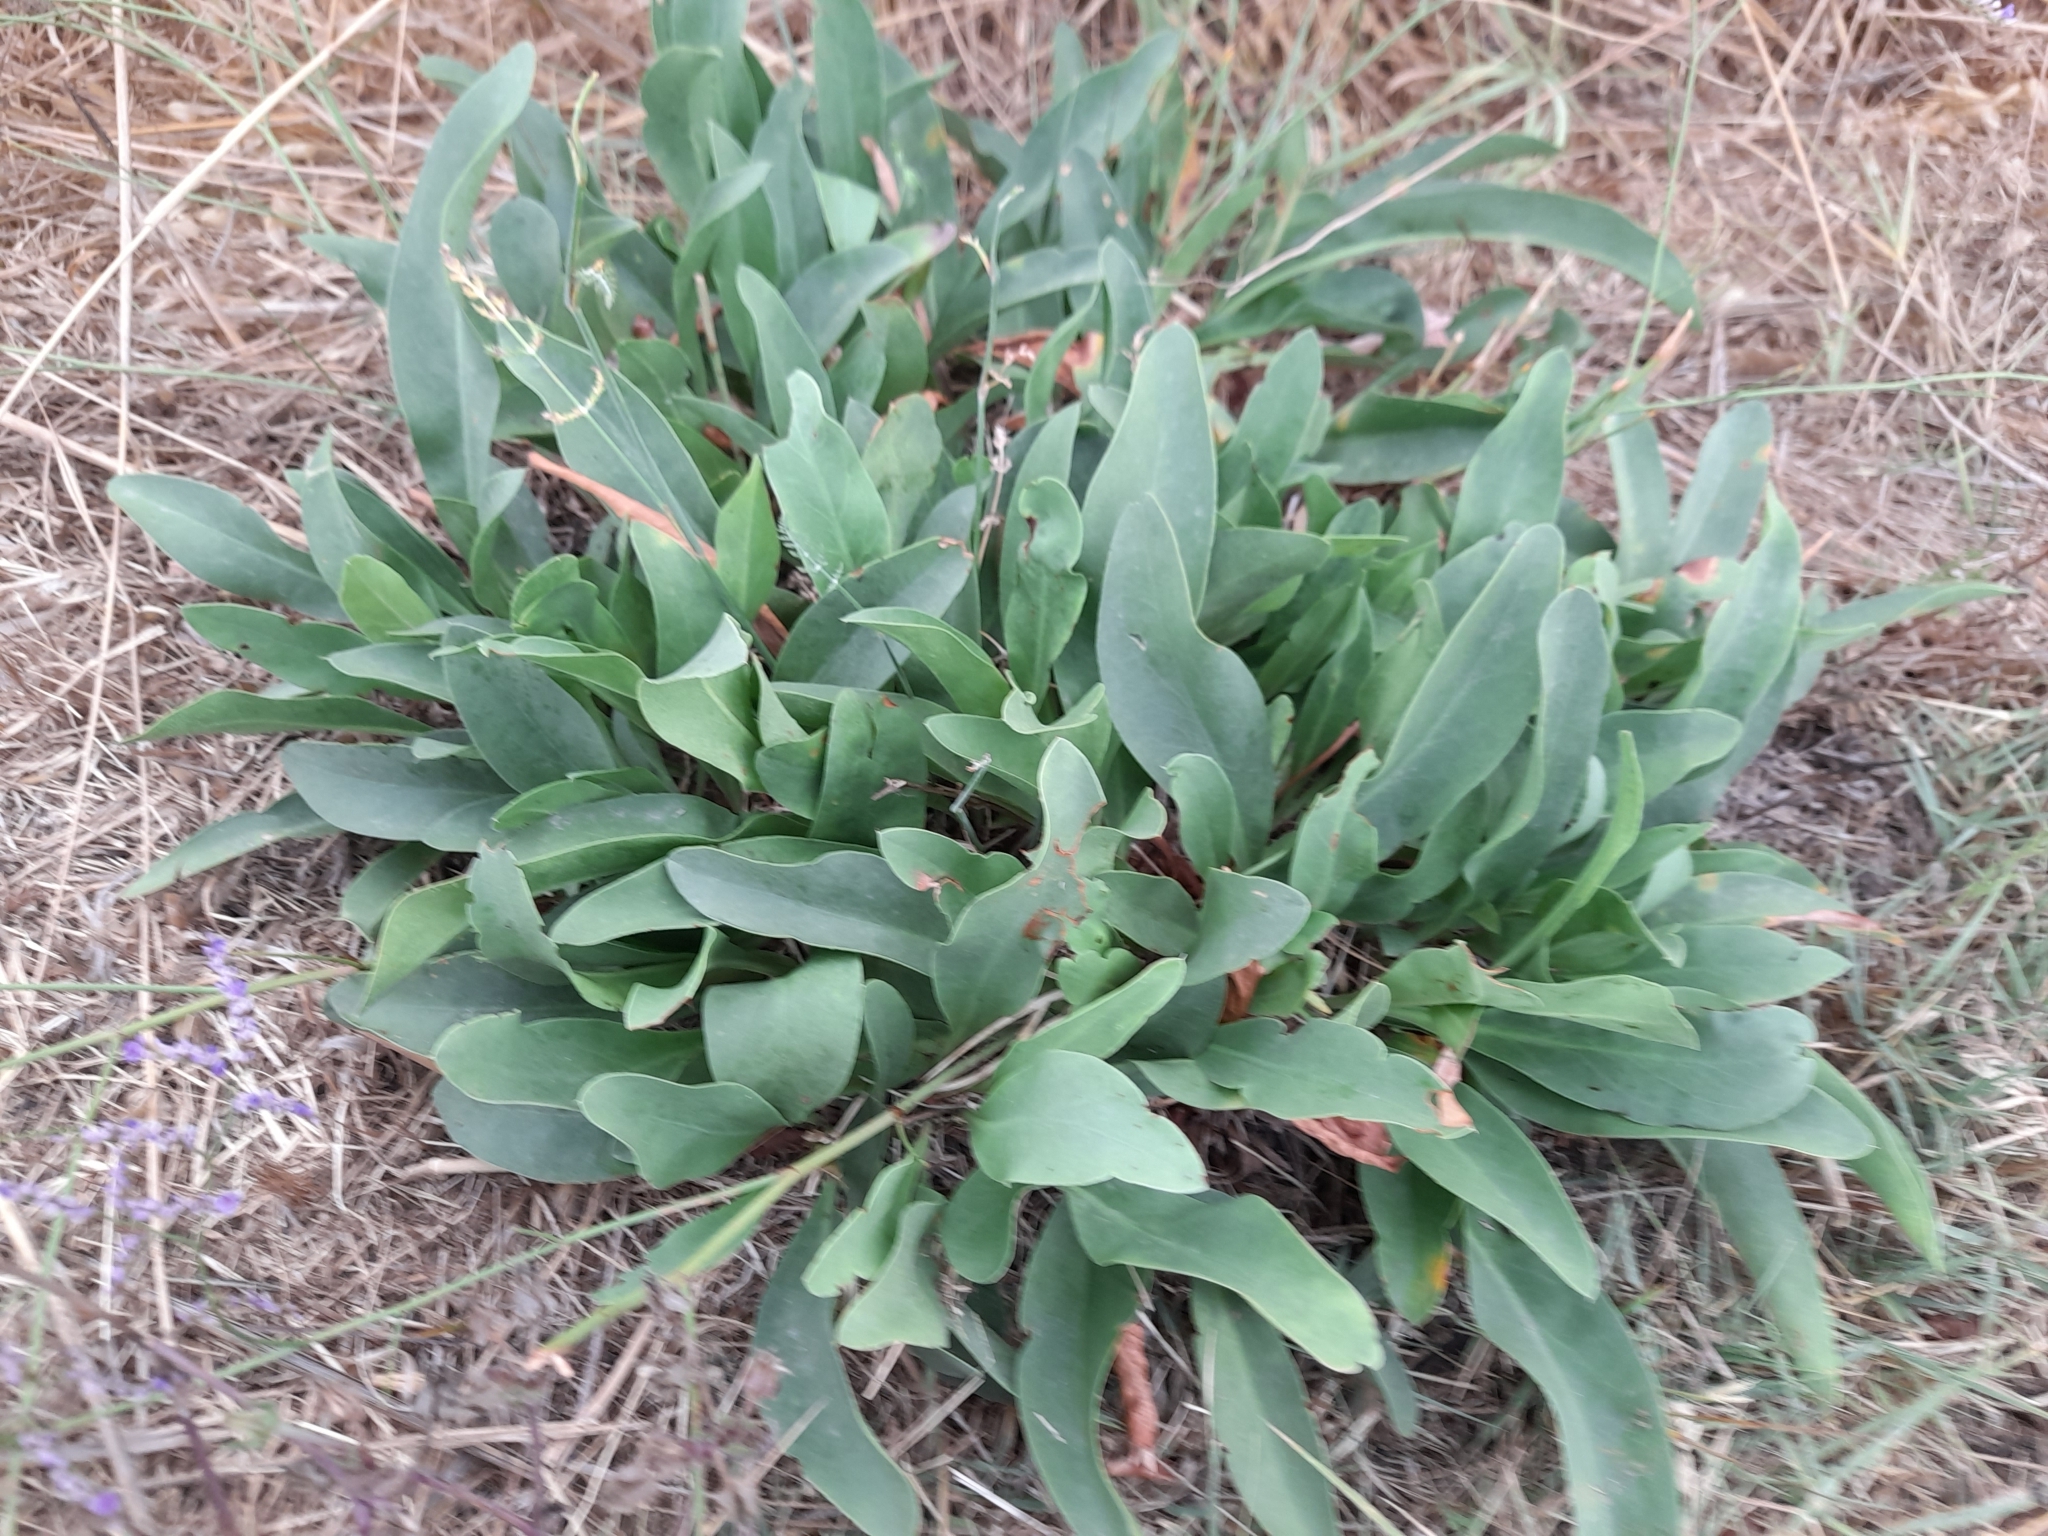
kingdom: Plantae
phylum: Tracheophyta
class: Magnoliopsida
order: Caryophyllales
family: Plumbaginaceae
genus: Limonium
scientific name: Limonium narbonense
